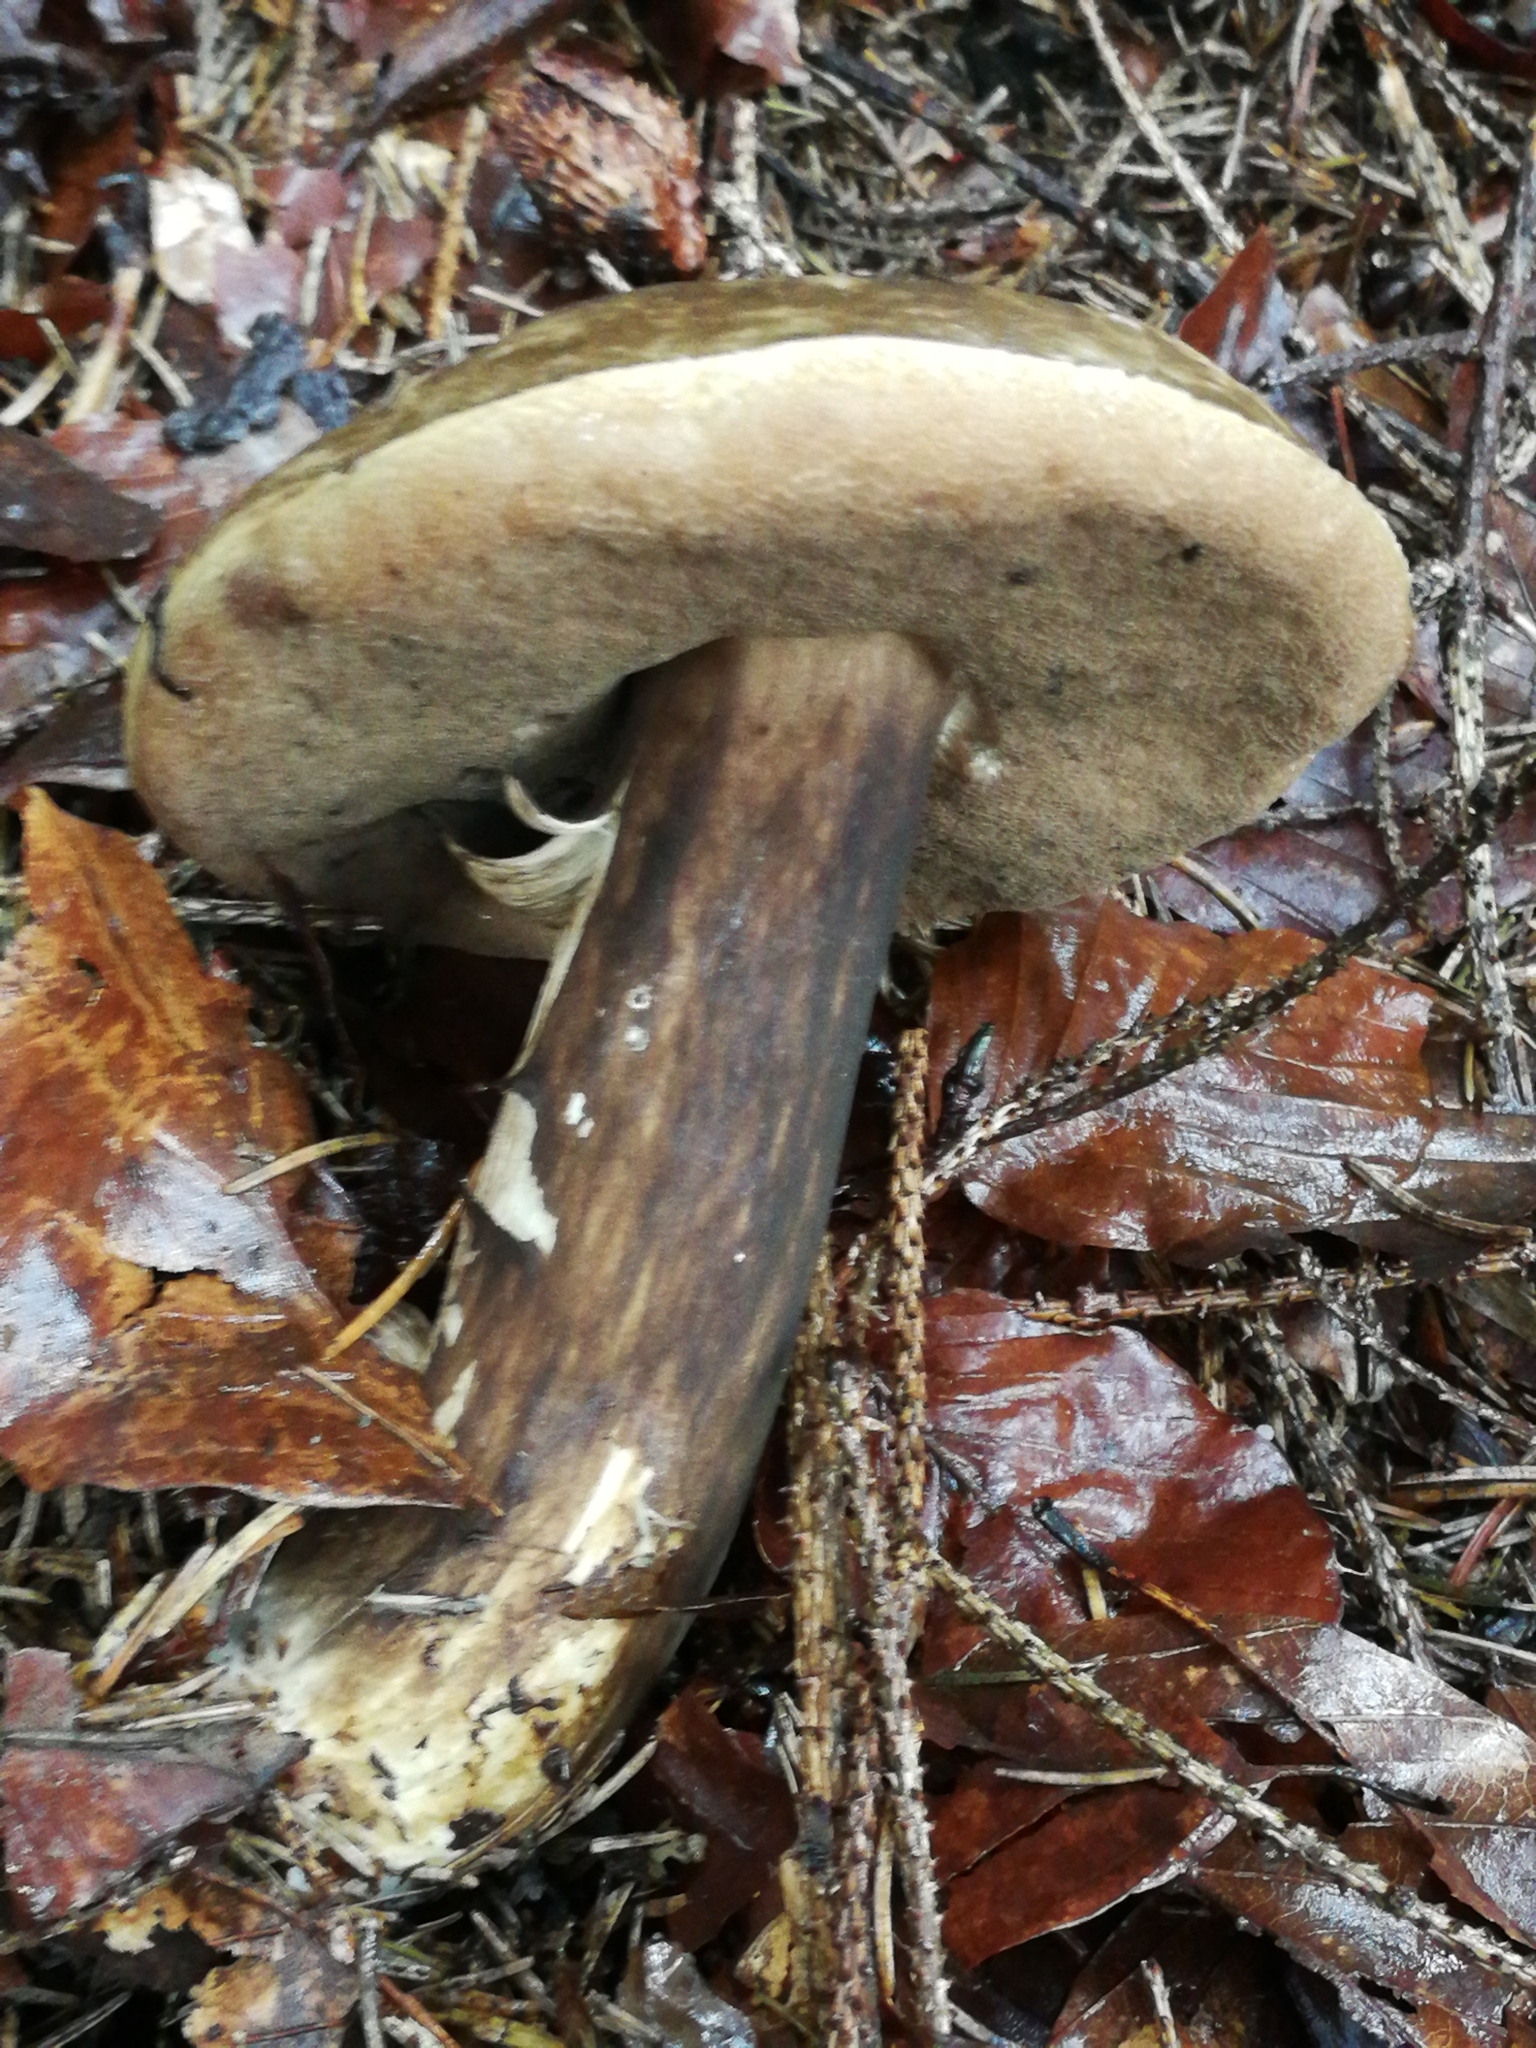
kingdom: Fungi
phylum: Basidiomycota
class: Agaricomycetes
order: Boletales
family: Boletaceae
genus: Porphyrellus
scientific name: Porphyrellus porphyrosporus
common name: Dusky bolete
